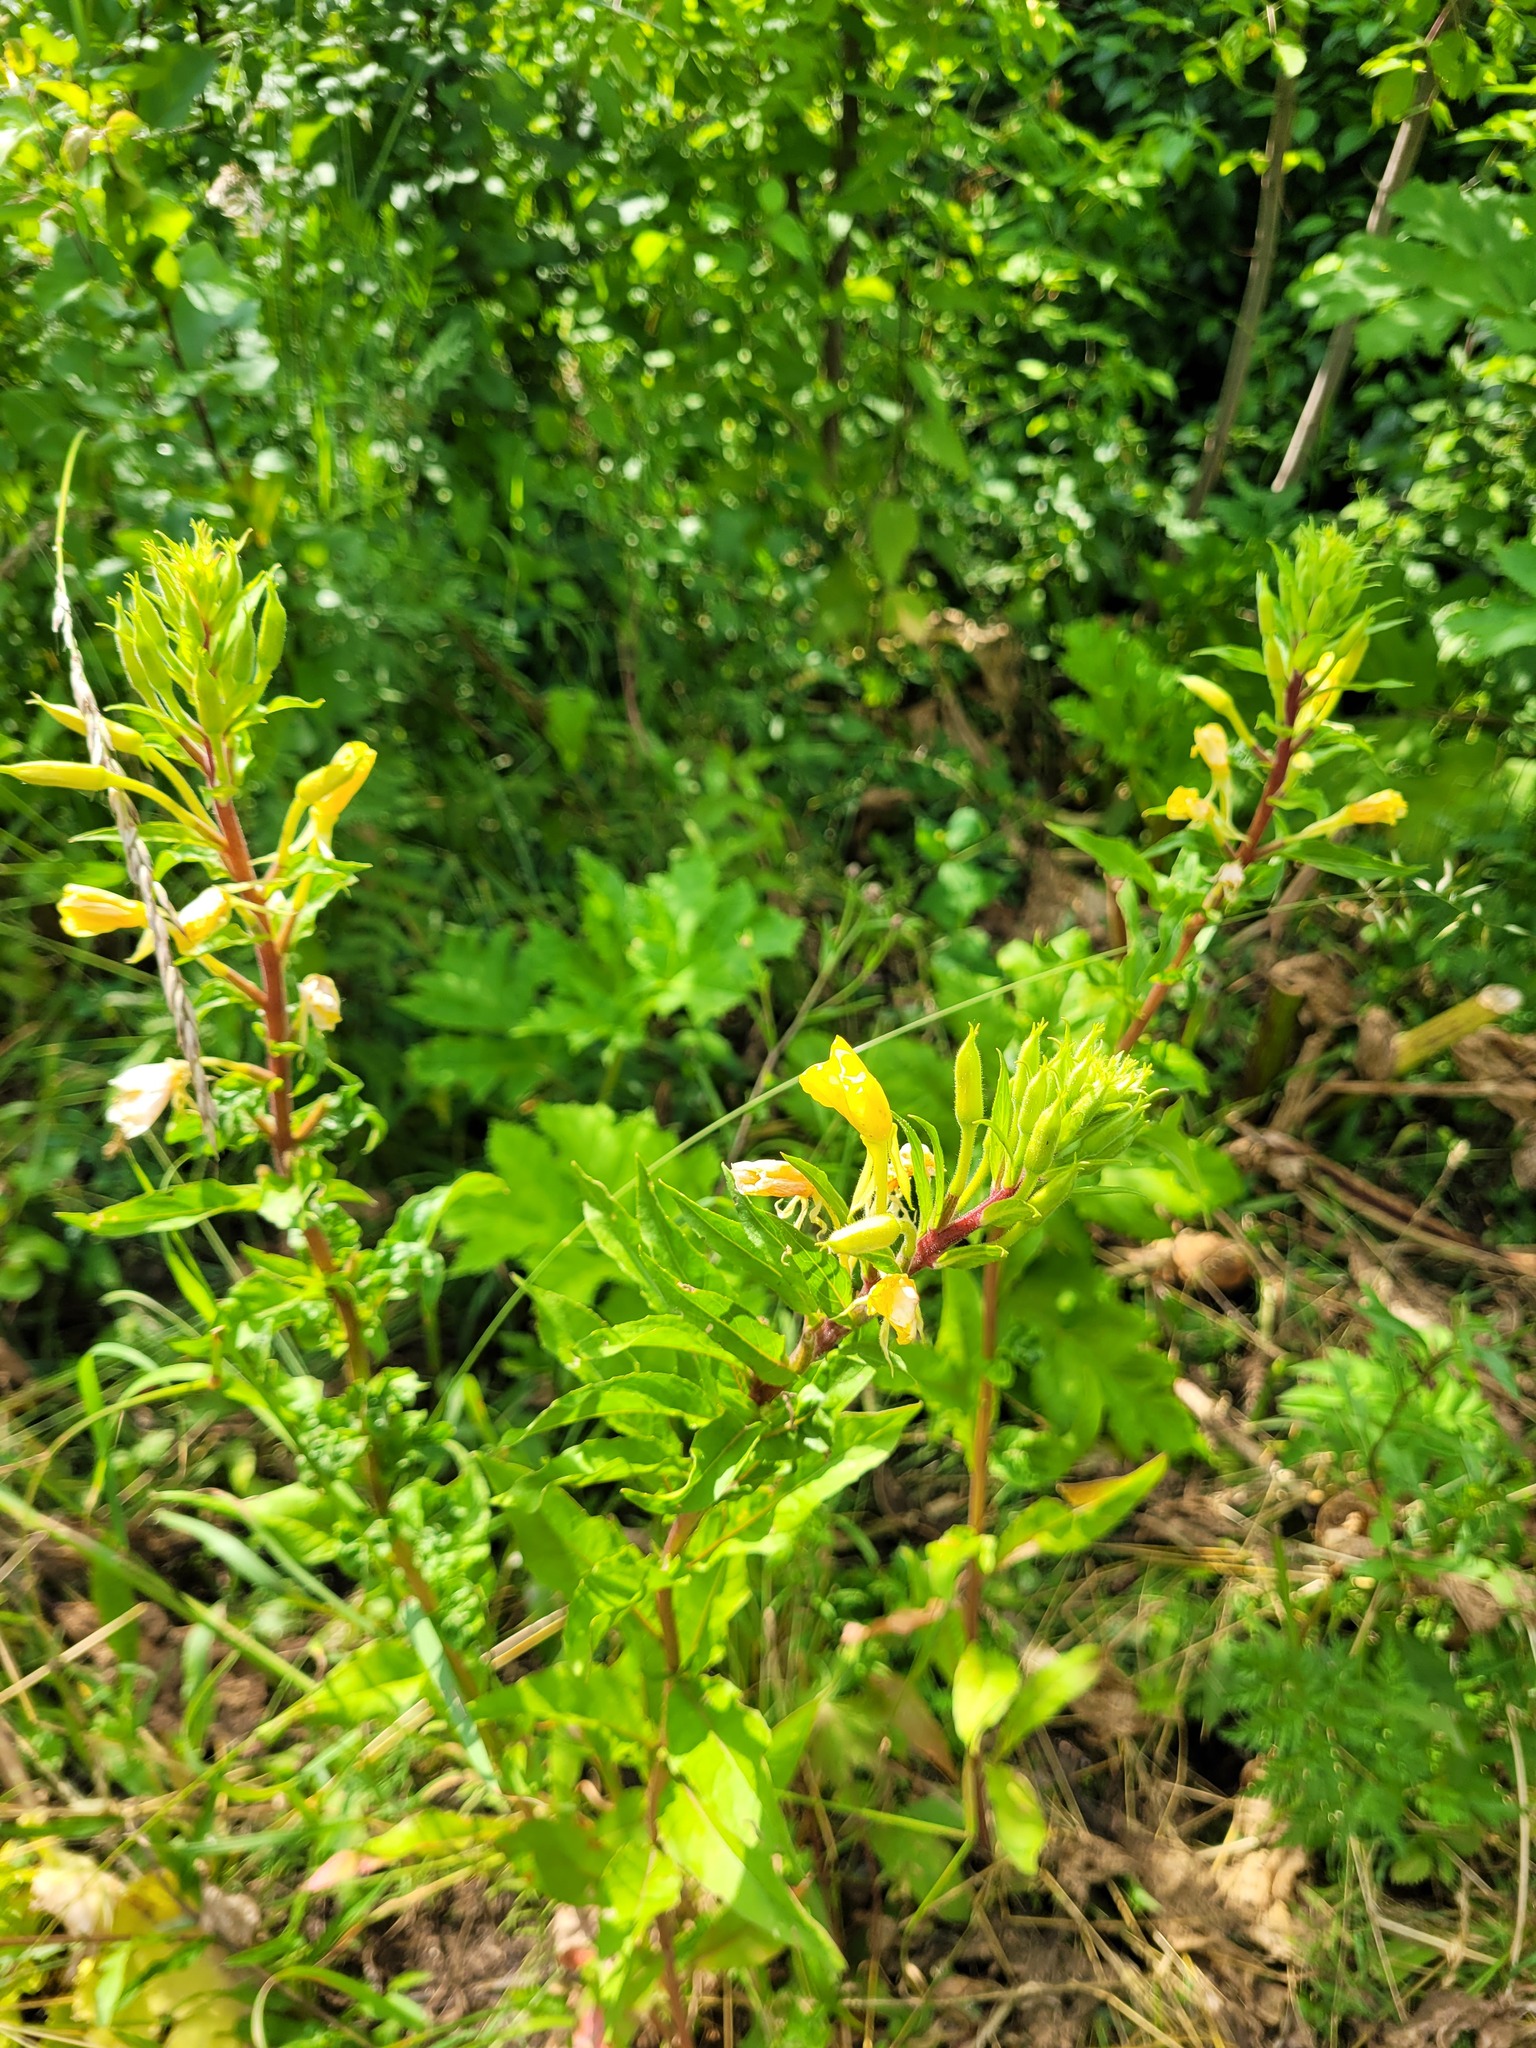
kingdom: Plantae
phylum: Tracheophyta
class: Magnoliopsida
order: Myrtales
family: Onagraceae
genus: Oenothera
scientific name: Oenothera rubricaulis
